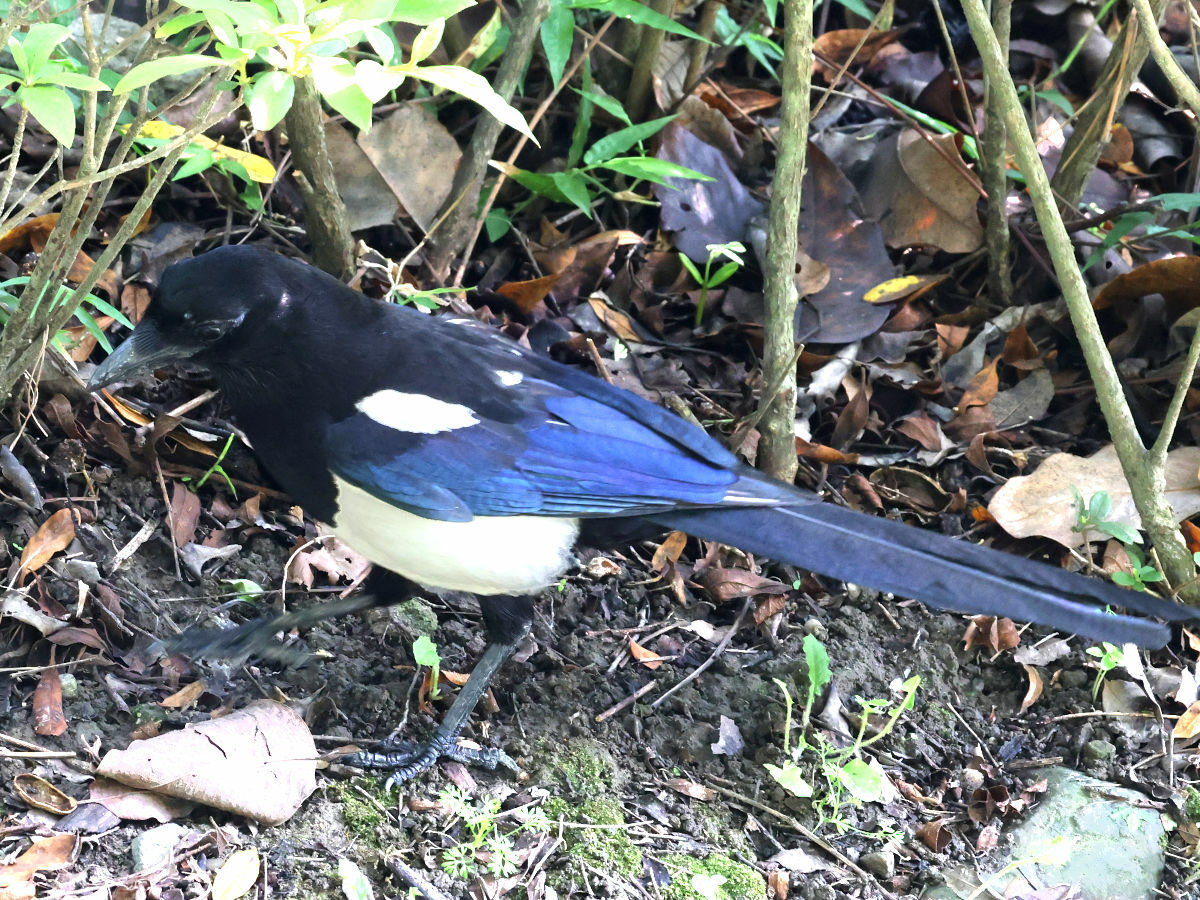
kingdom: Animalia
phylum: Chordata
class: Aves
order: Passeriformes
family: Corvidae
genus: Pica
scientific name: Pica serica
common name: Oriental magpie
